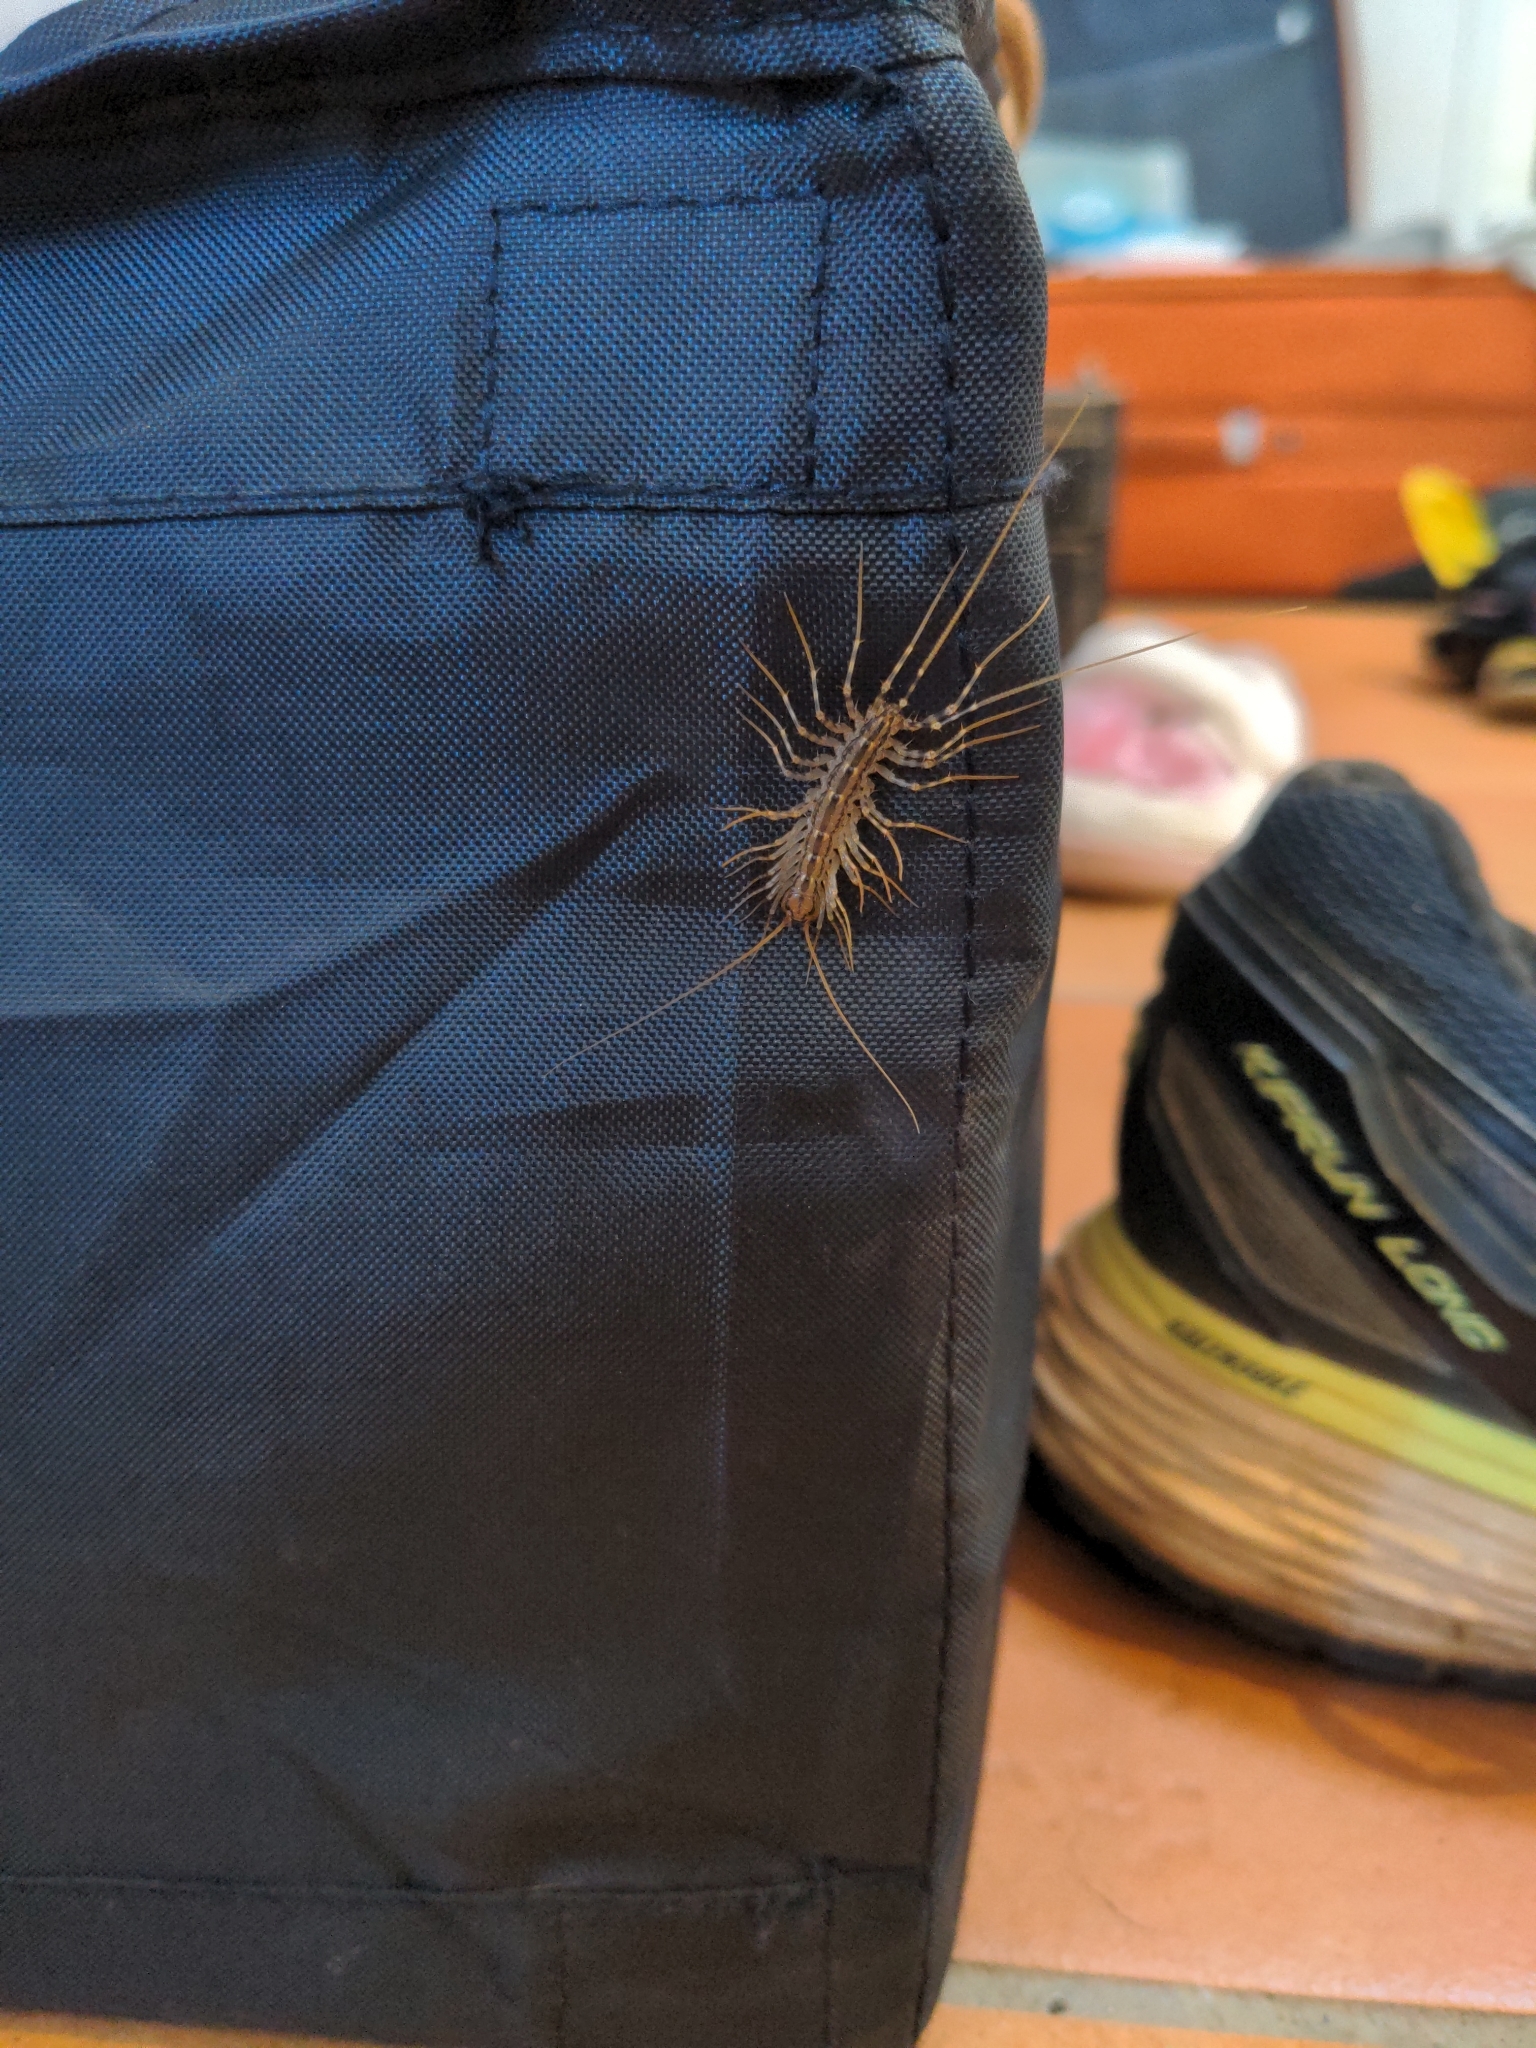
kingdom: Animalia
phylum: Arthropoda
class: Chilopoda
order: Scutigeromorpha
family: Scutigeridae
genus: Scutigera
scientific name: Scutigera coleoptrata
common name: House centipede
